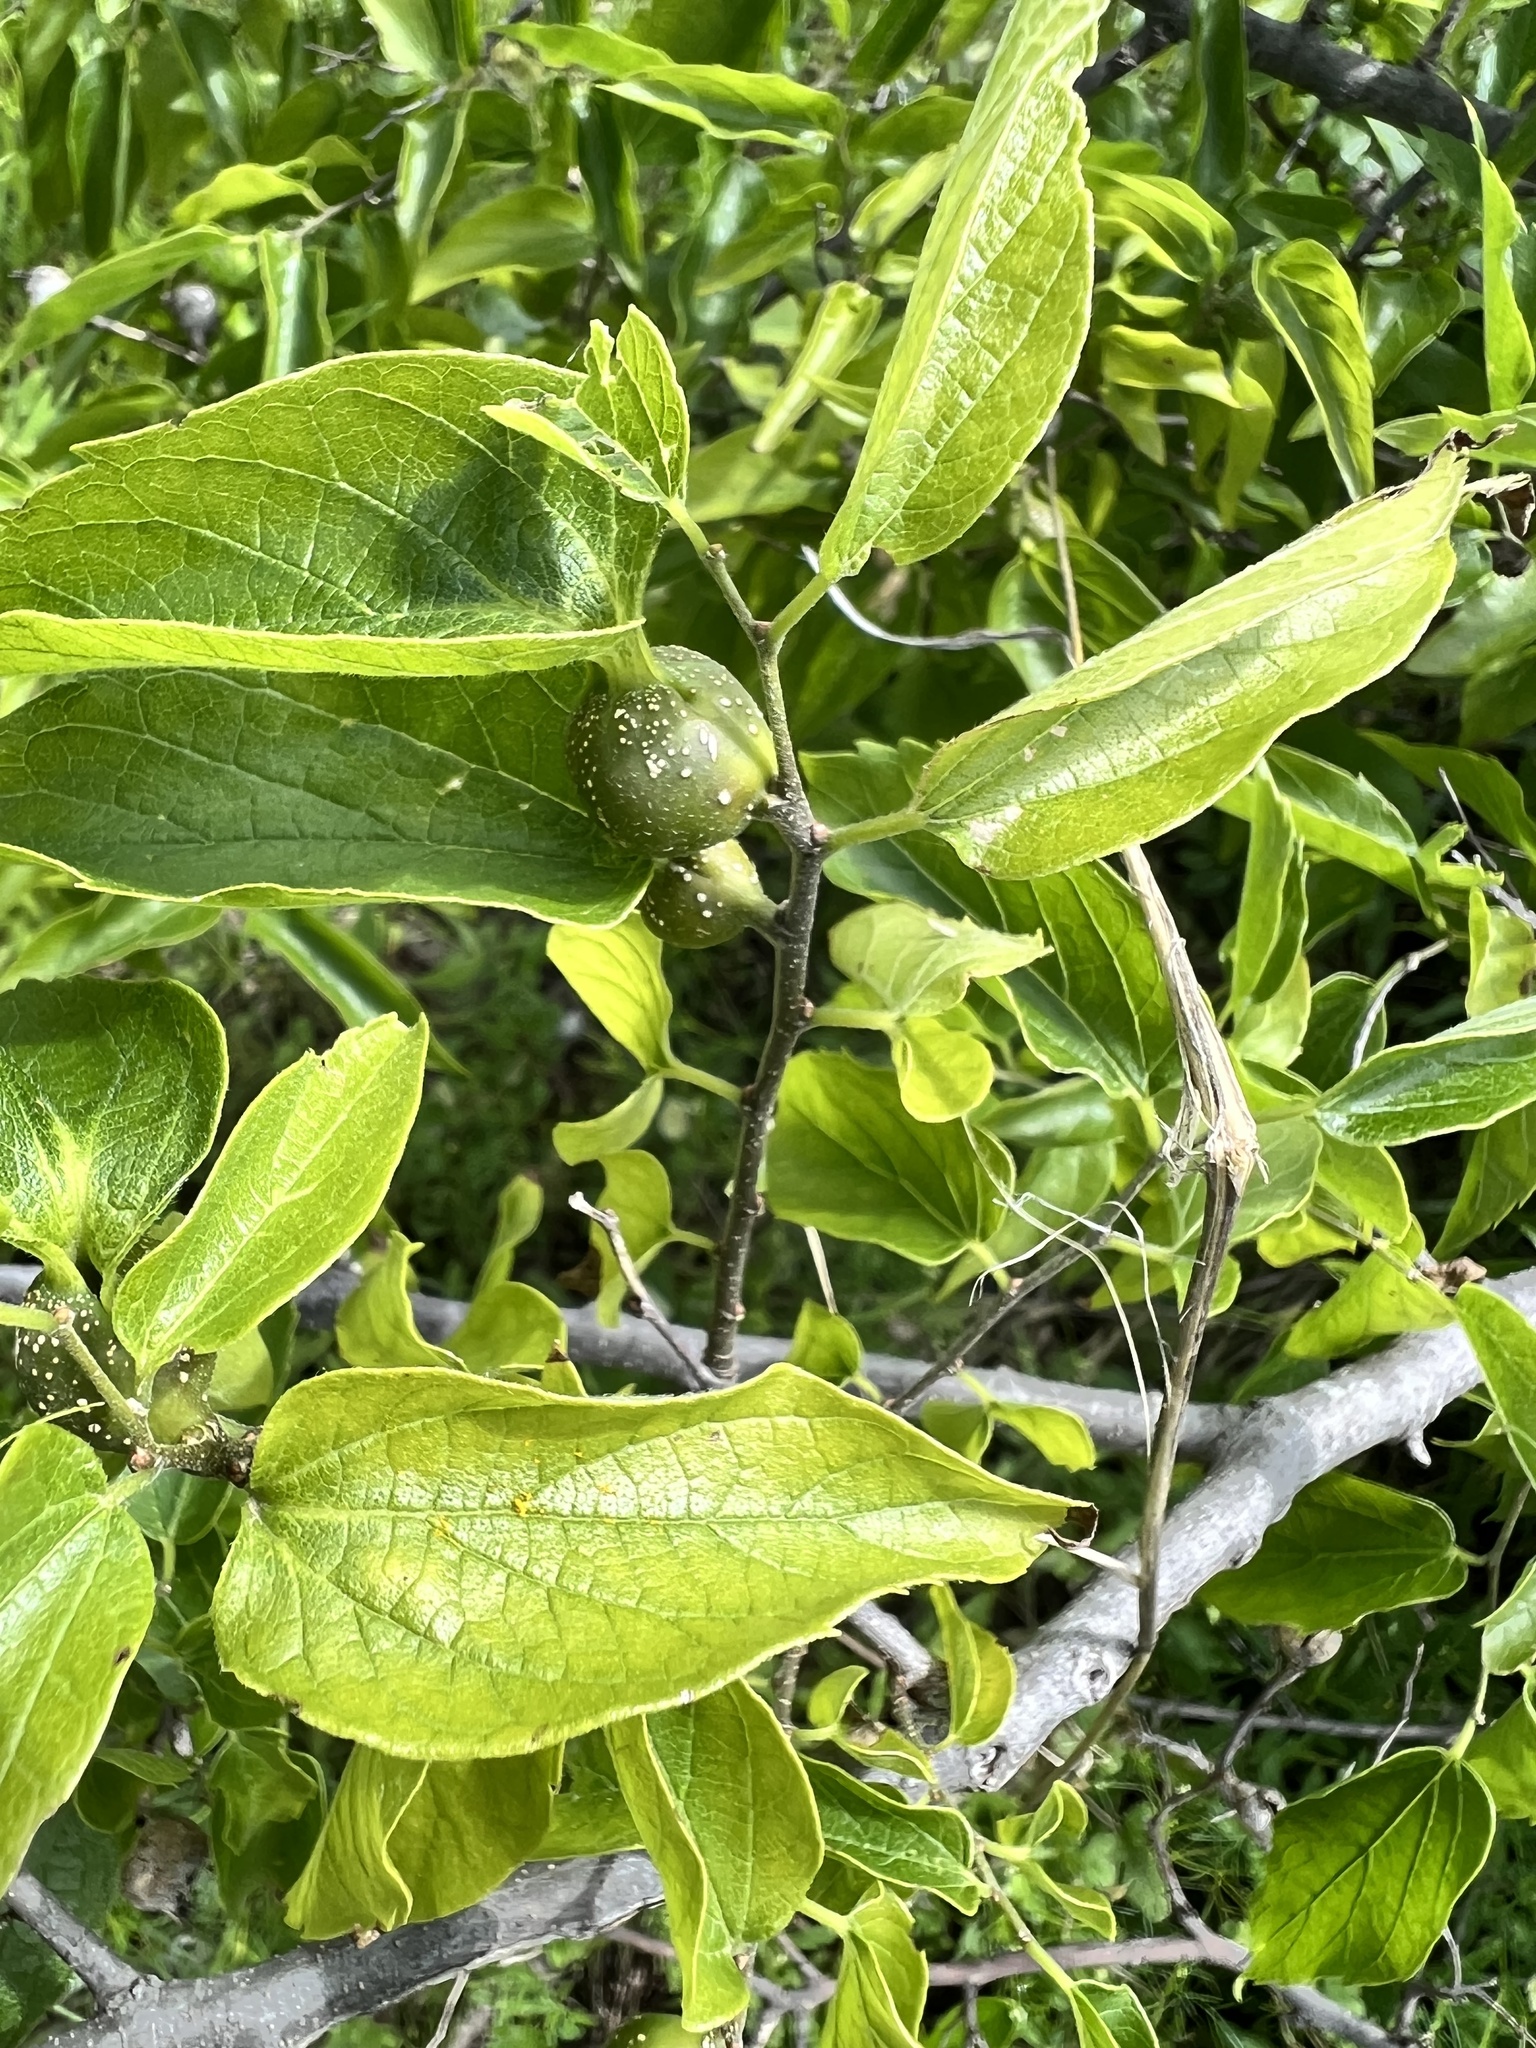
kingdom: Animalia
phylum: Arthropoda
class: Insecta
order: Hemiptera
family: Aphalaridae
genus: Pachypsylla
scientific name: Pachypsylla venusta
